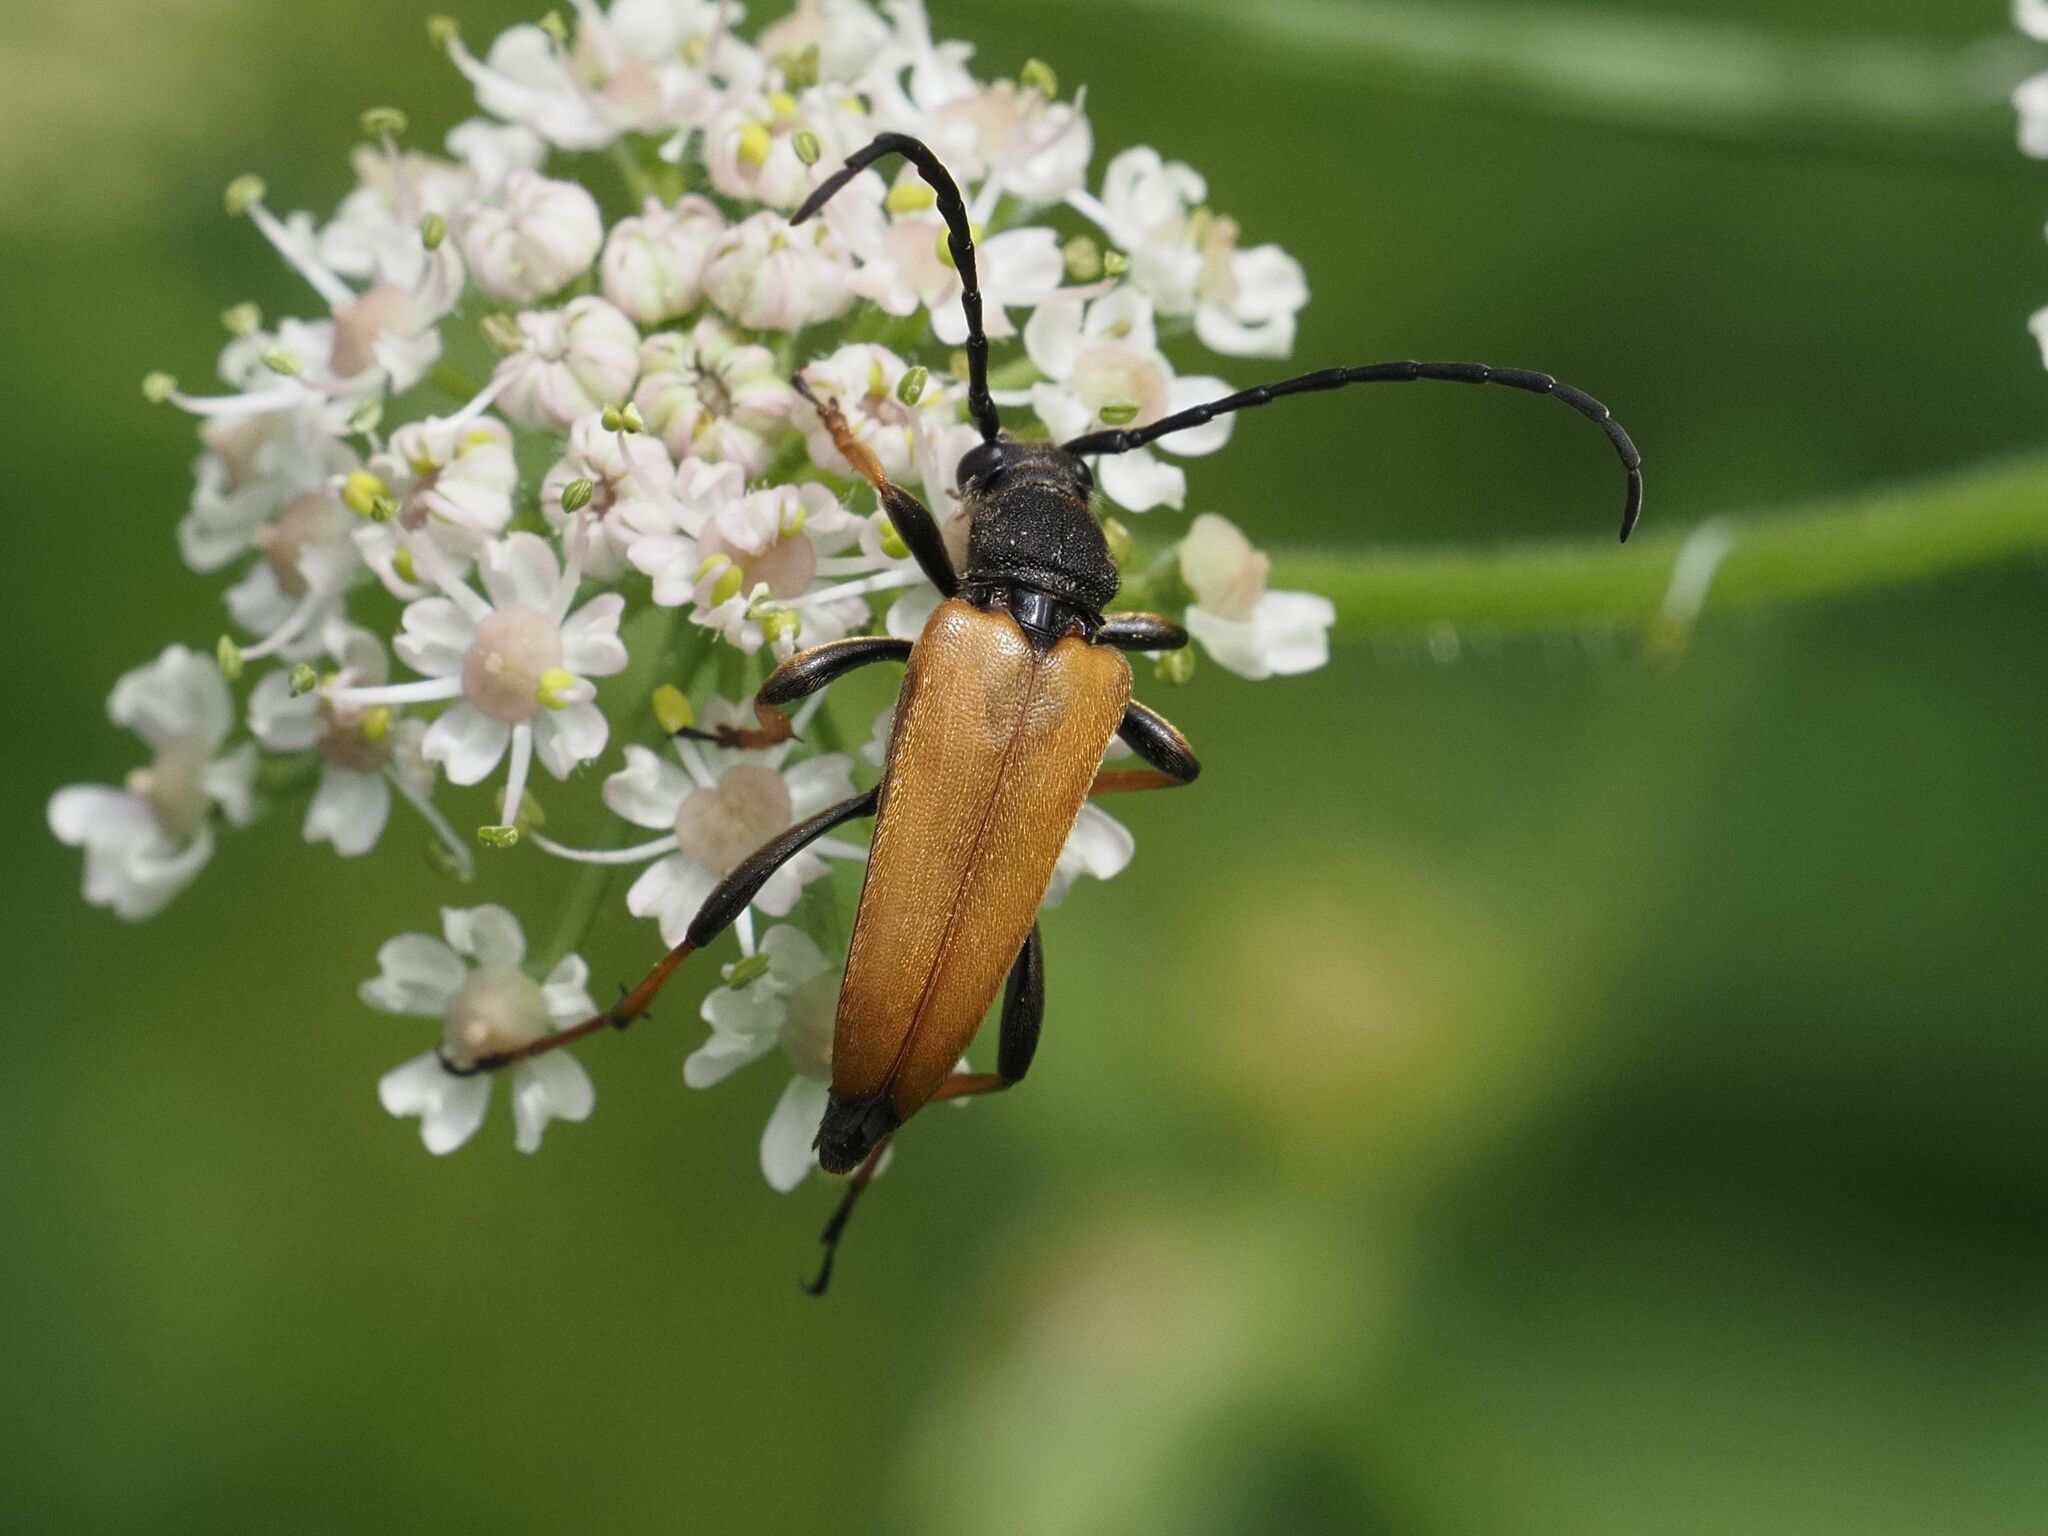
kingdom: Animalia
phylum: Arthropoda
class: Insecta
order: Coleoptera
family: Cerambycidae
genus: Stictoleptura
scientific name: Stictoleptura rubra
